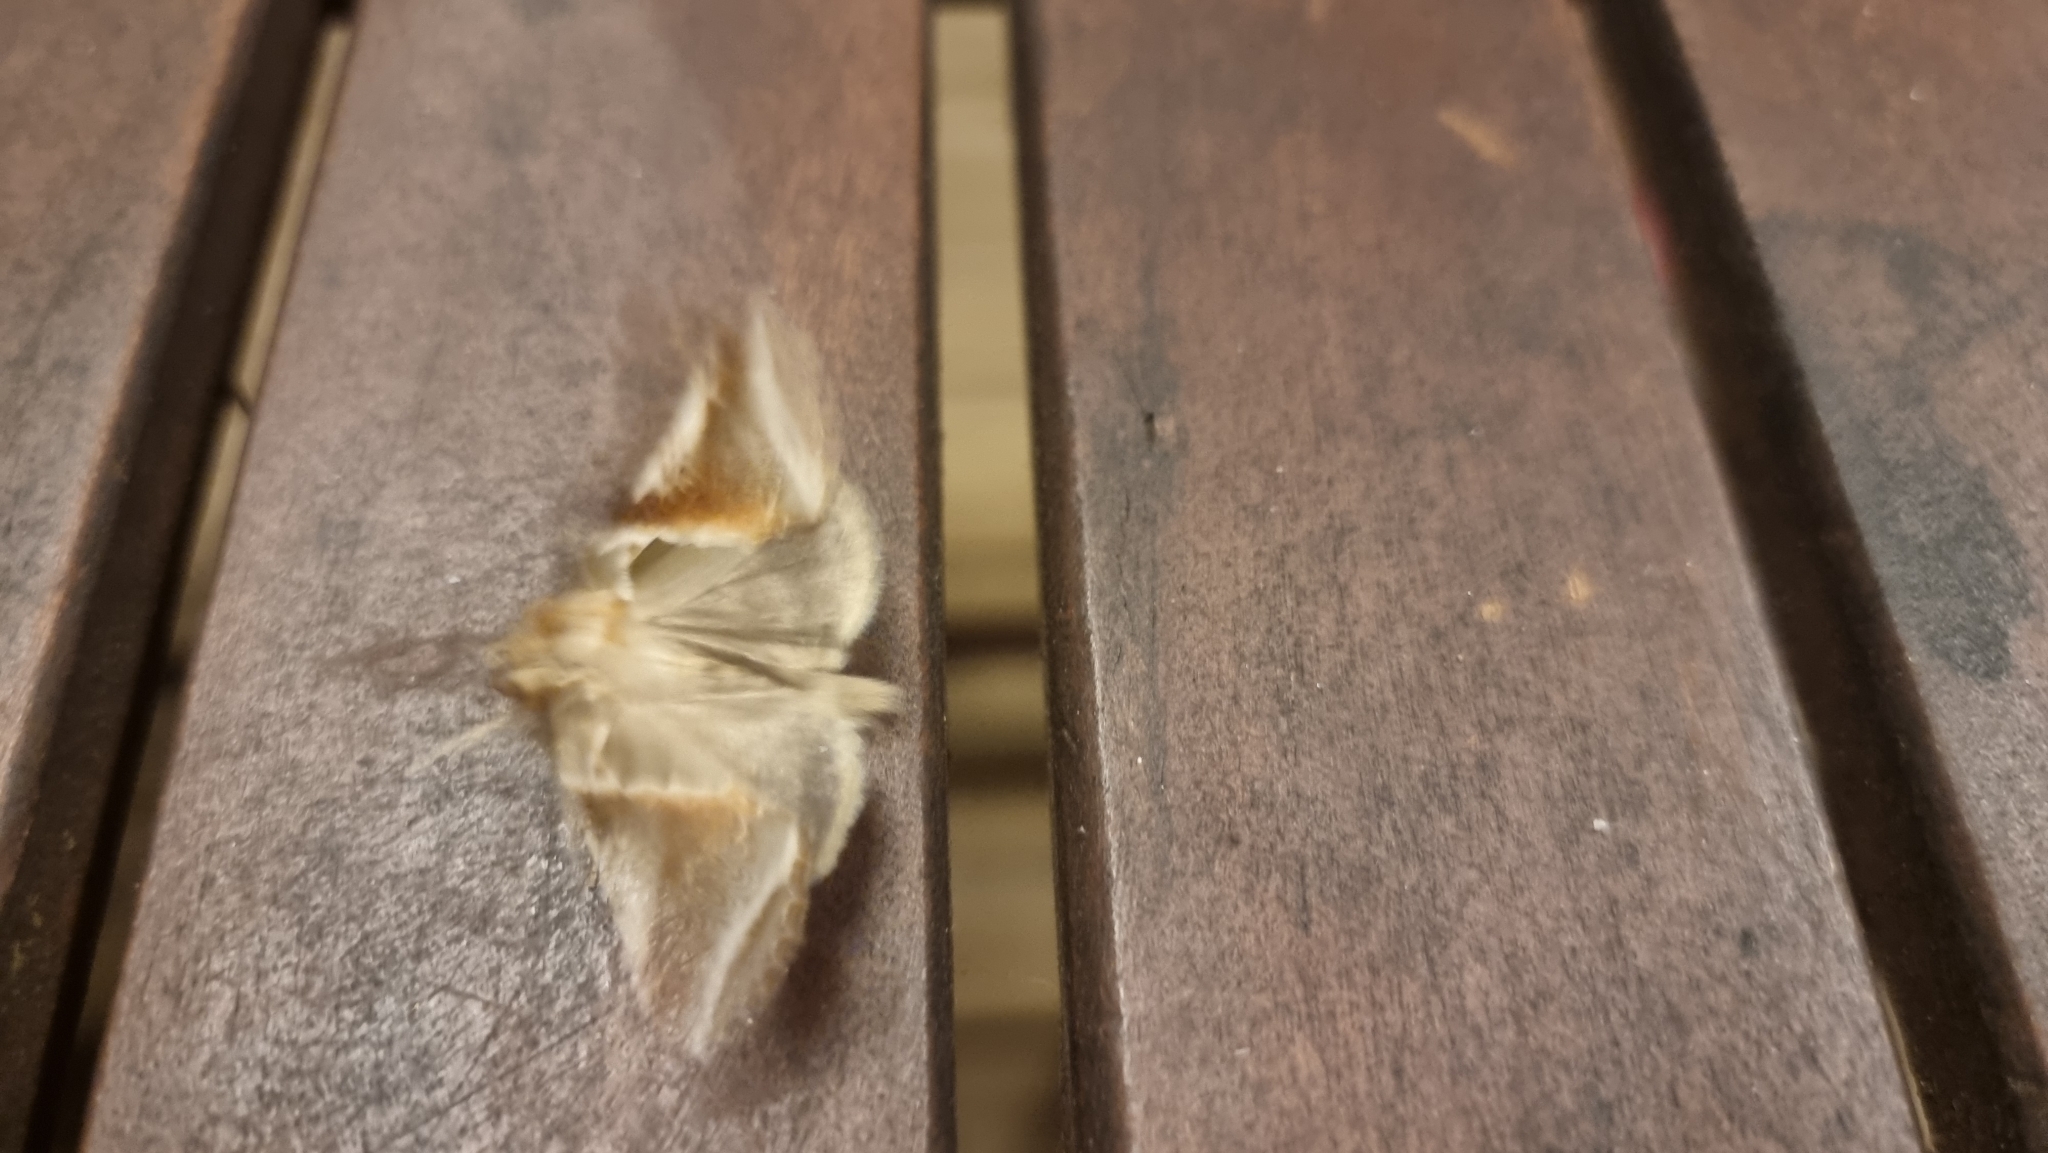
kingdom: Animalia
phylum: Arthropoda
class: Insecta
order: Lepidoptera
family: Drepanidae
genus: Habrosyne
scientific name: Habrosyne pyritoides
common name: Buff arches
